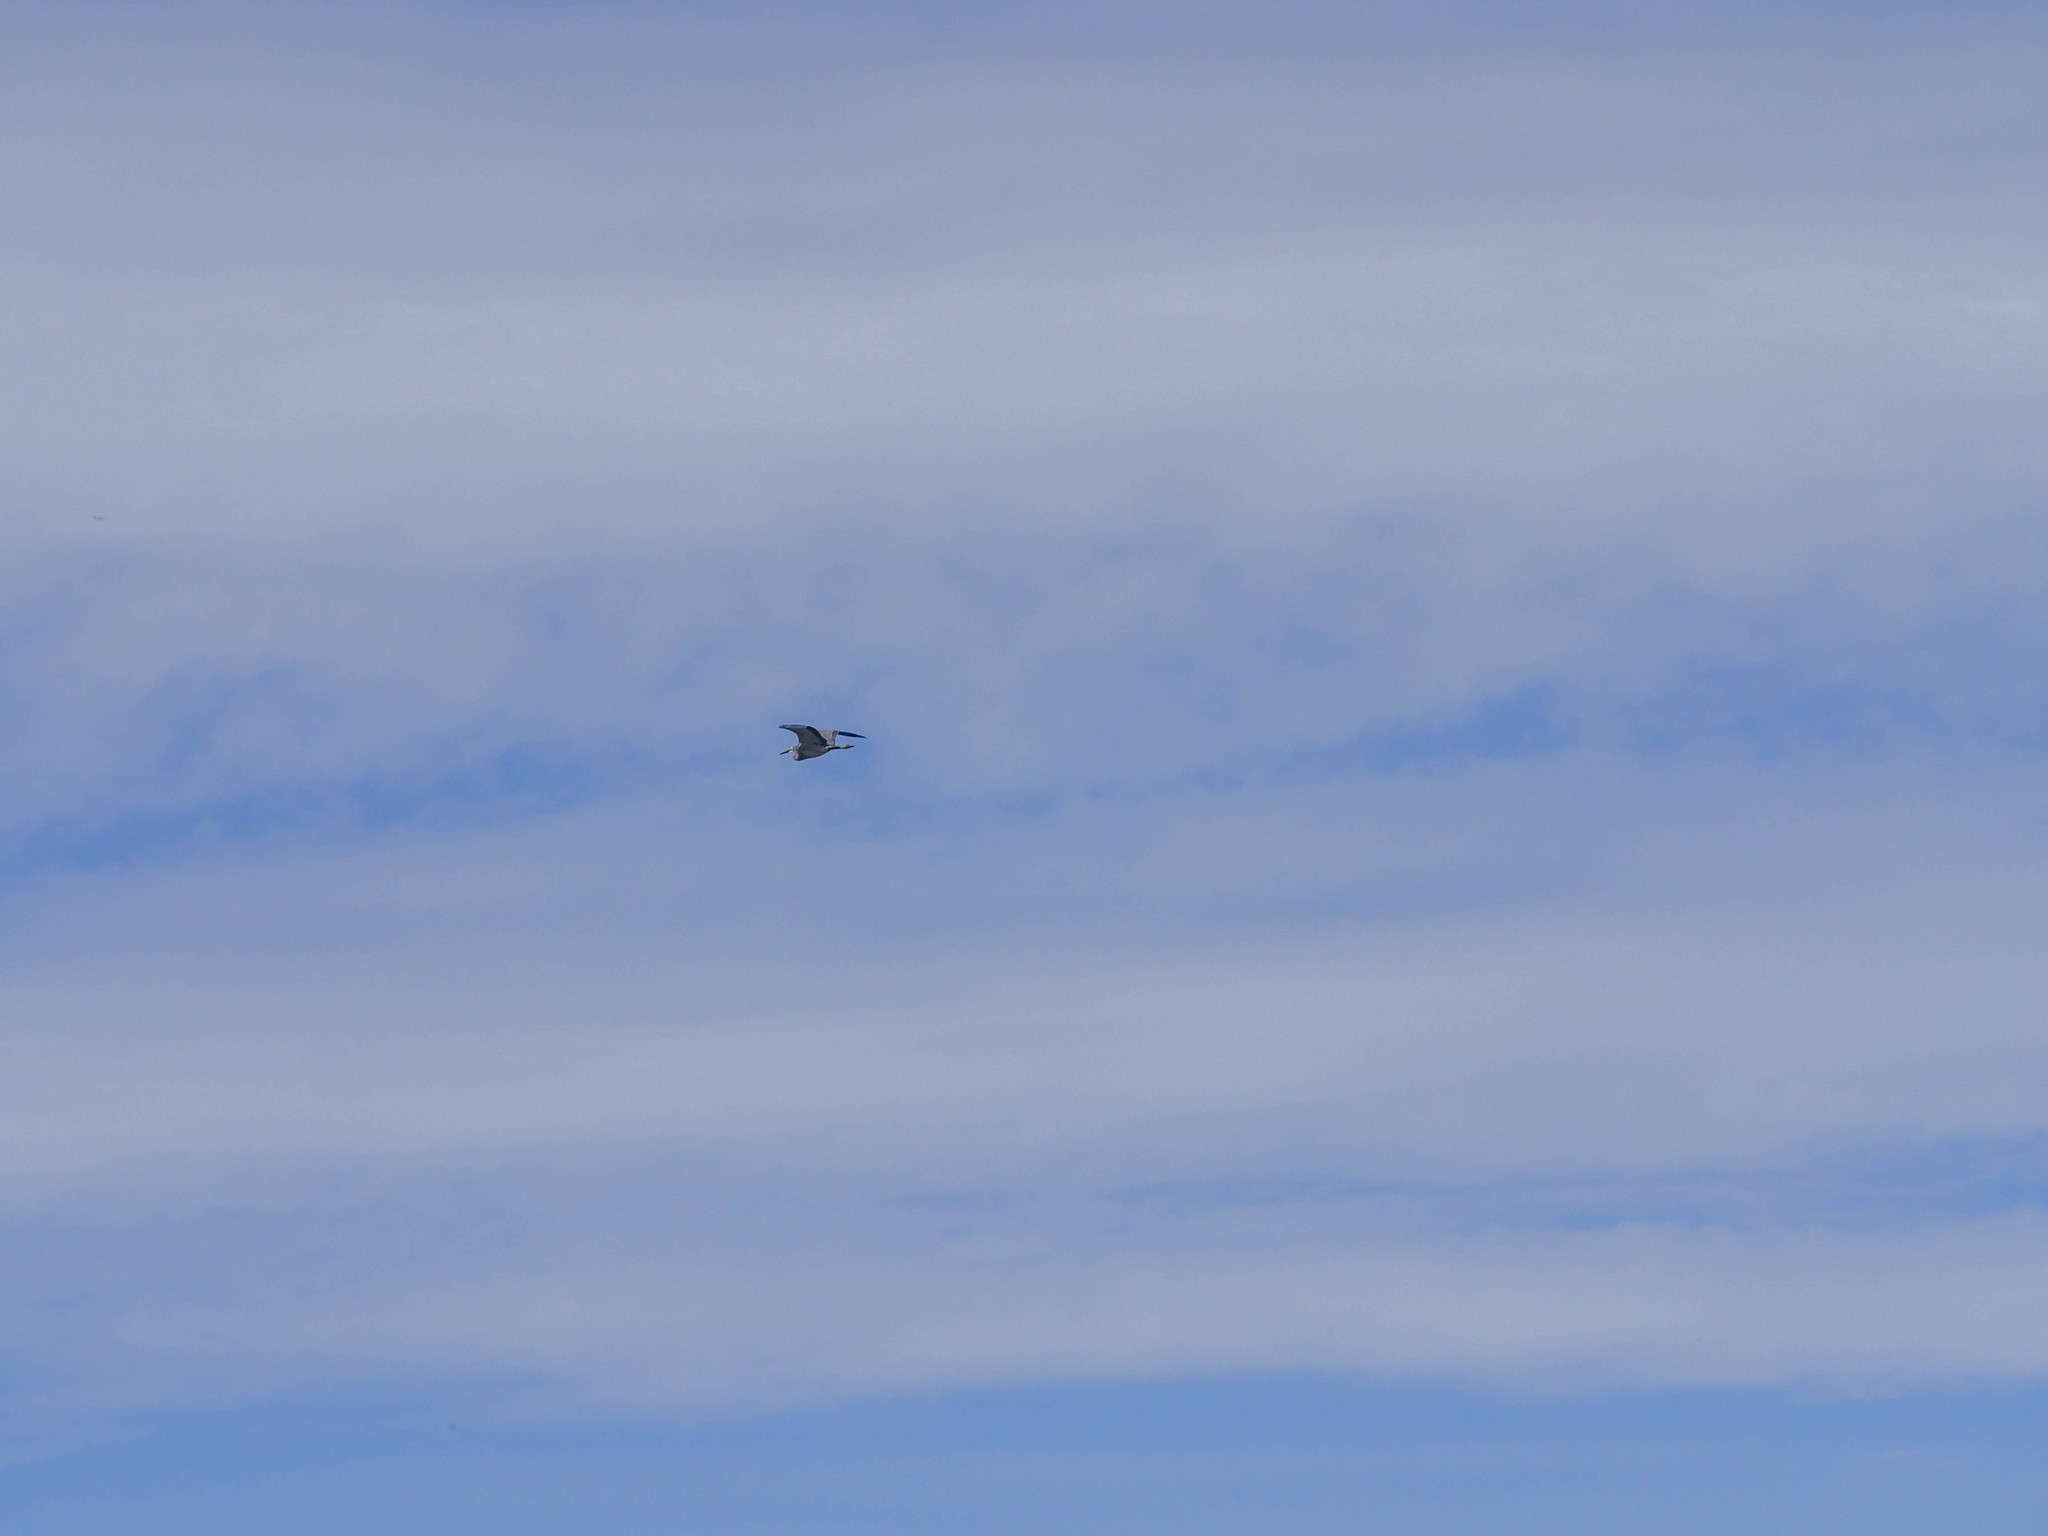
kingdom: Animalia
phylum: Chordata
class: Aves
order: Pelecaniformes
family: Ardeidae
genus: Egretta
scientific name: Egretta novaehollandiae
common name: White-faced heron
